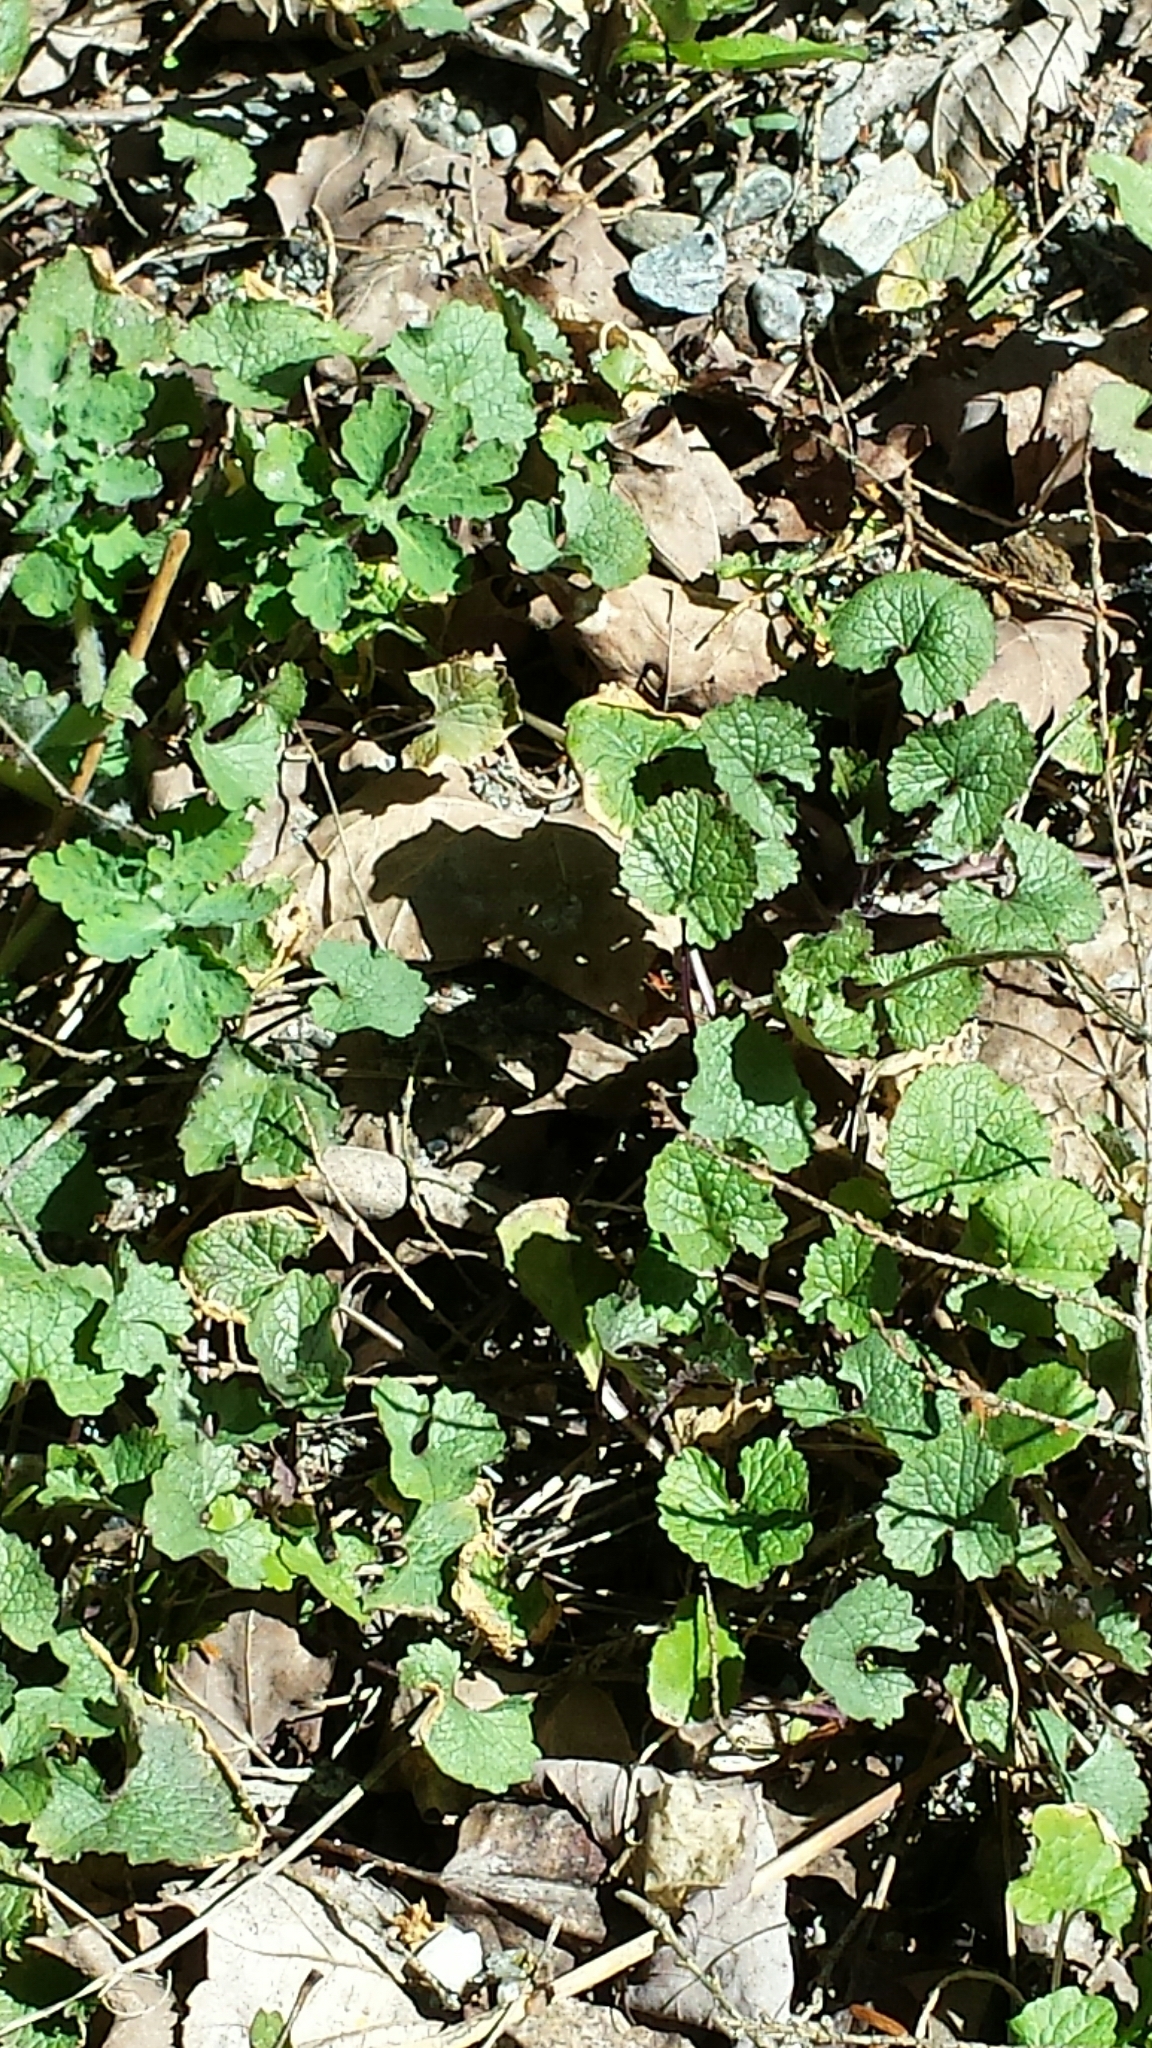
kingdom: Plantae
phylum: Tracheophyta
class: Magnoliopsida
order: Brassicales
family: Brassicaceae
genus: Alliaria
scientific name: Alliaria petiolata
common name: Garlic mustard
